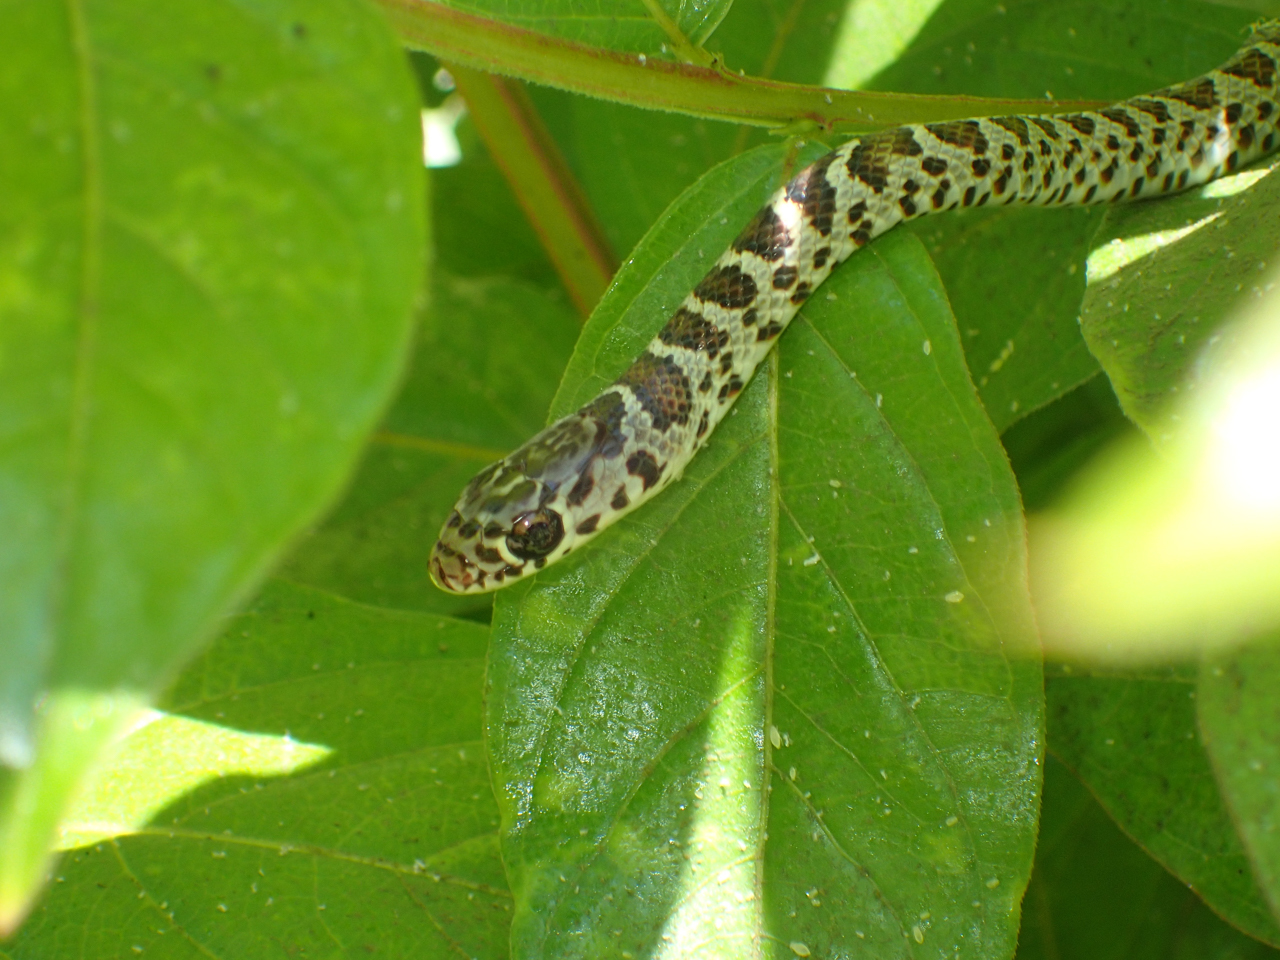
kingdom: Animalia
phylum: Chordata
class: Squamata
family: Colubridae
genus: Coluber
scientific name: Coluber constrictor
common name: Eastern racer
